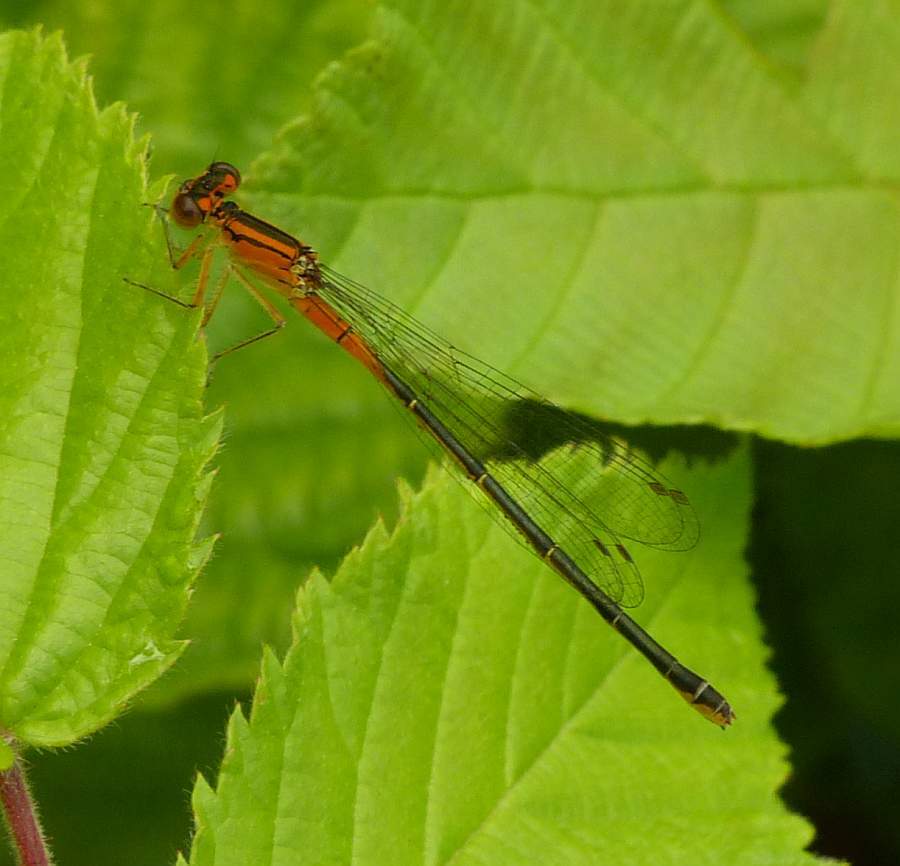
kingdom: Animalia
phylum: Arthropoda
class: Insecta
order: Odonata
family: Coenagrionidae
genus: Ischnura
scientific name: Ischnura verticalis
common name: Eastern forktail
